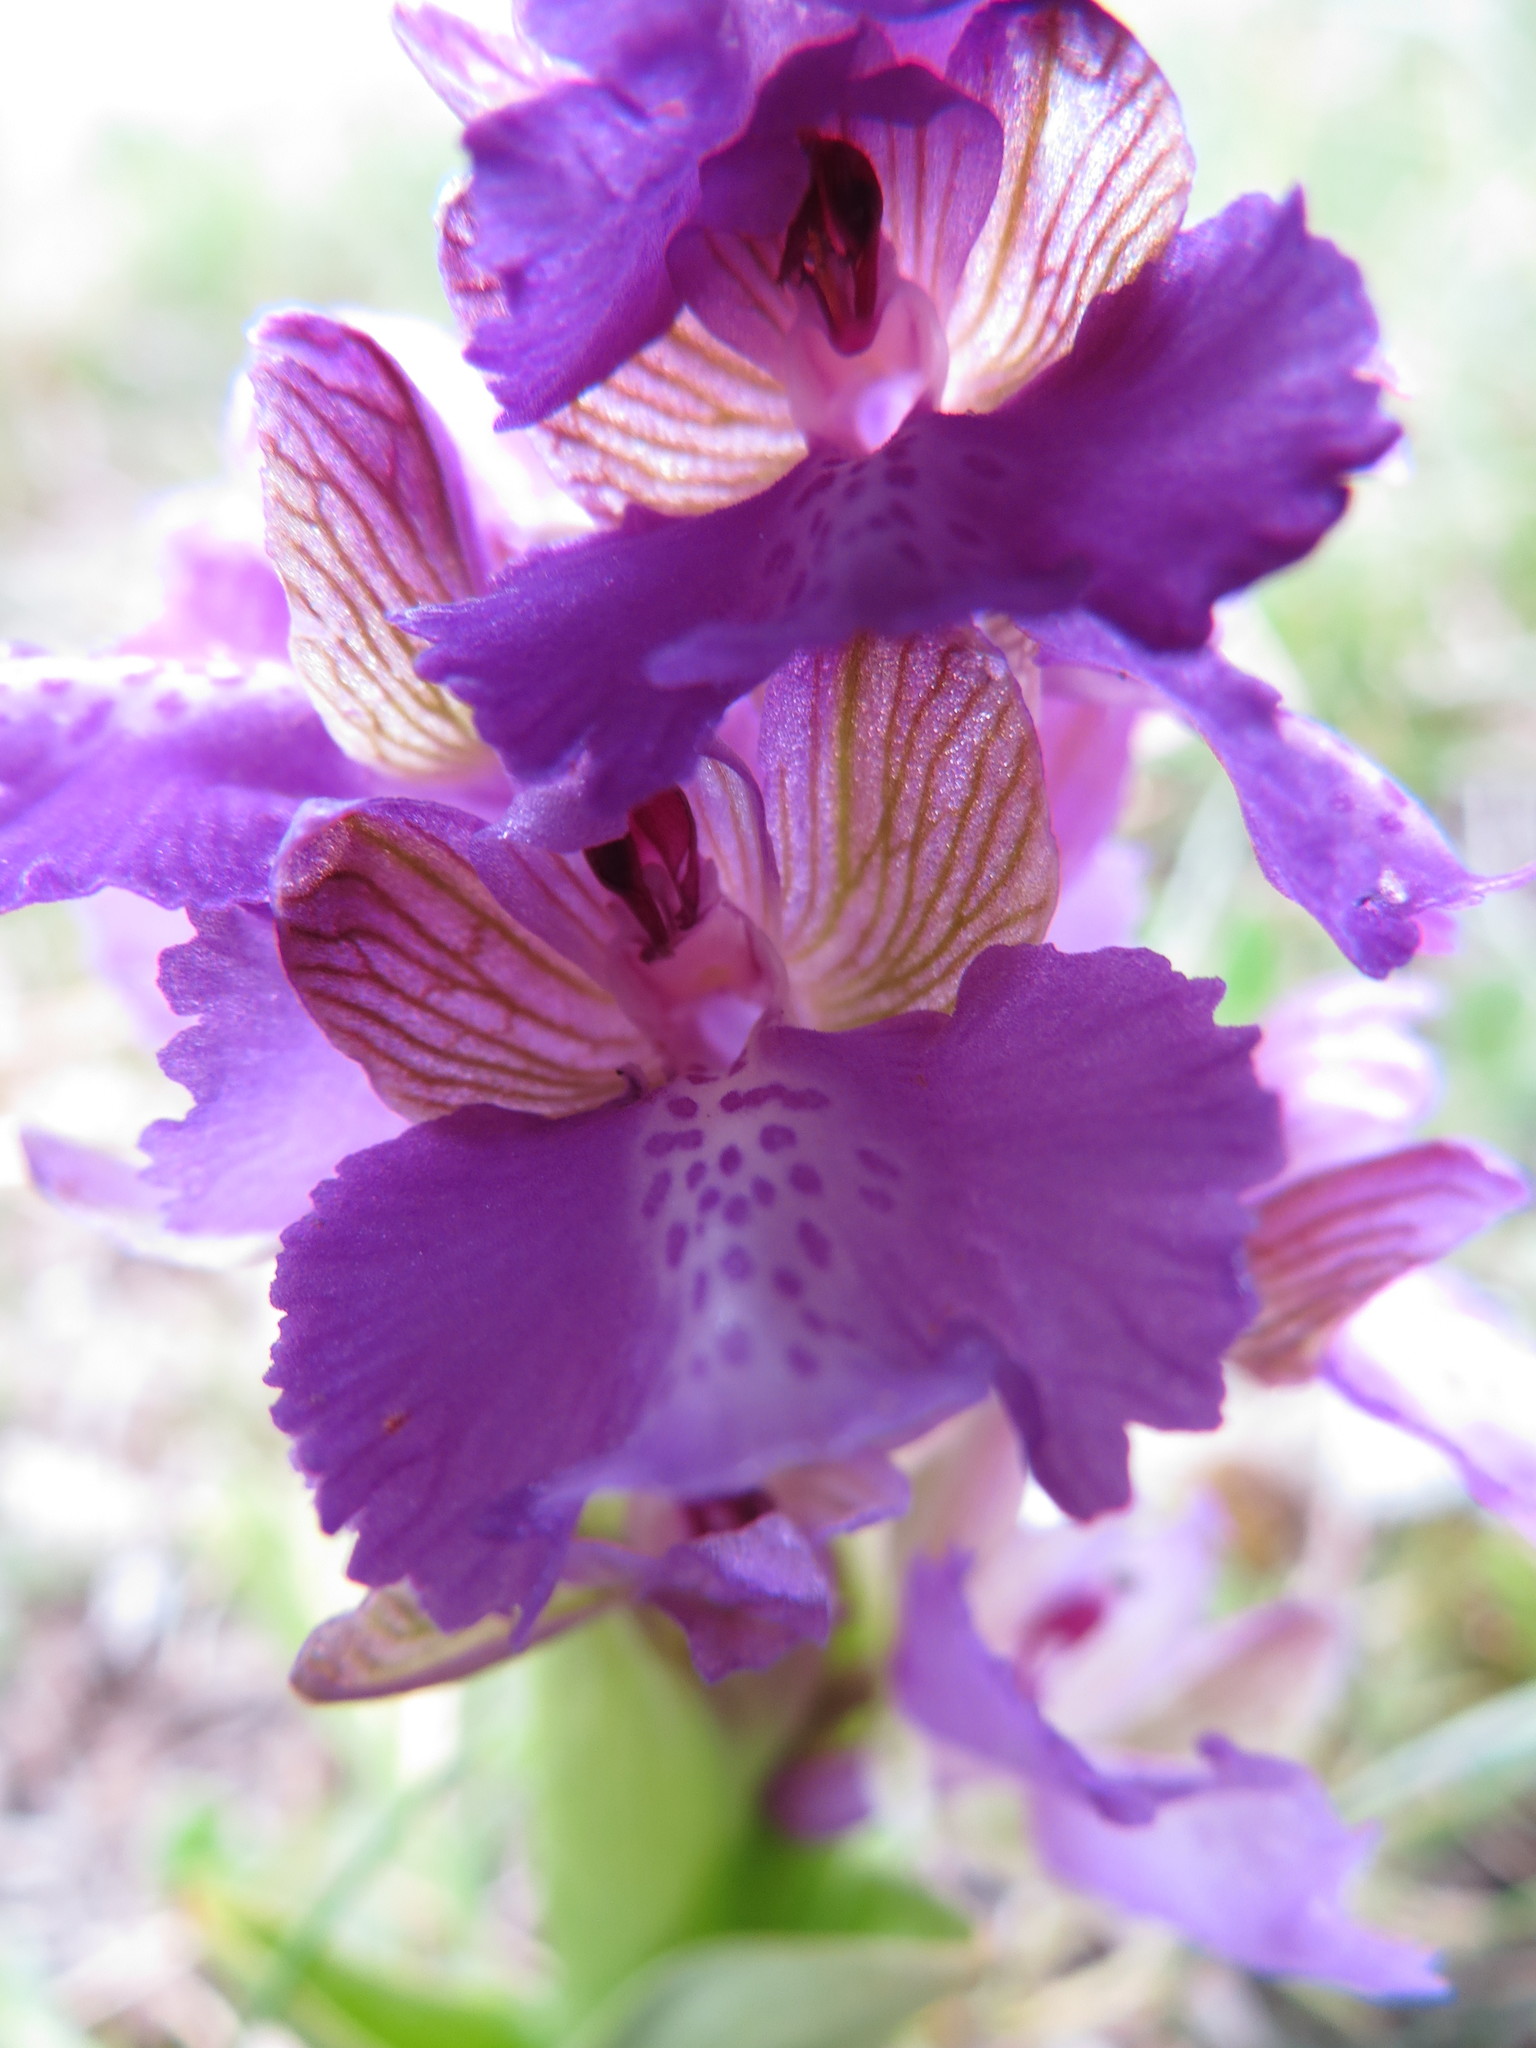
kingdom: Plantae
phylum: Tracheophyta
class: Liliopsida
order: Asparagales
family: Orchidaceae
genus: Anacamptis
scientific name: Anacamptis morio
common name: Green-winged orchid
